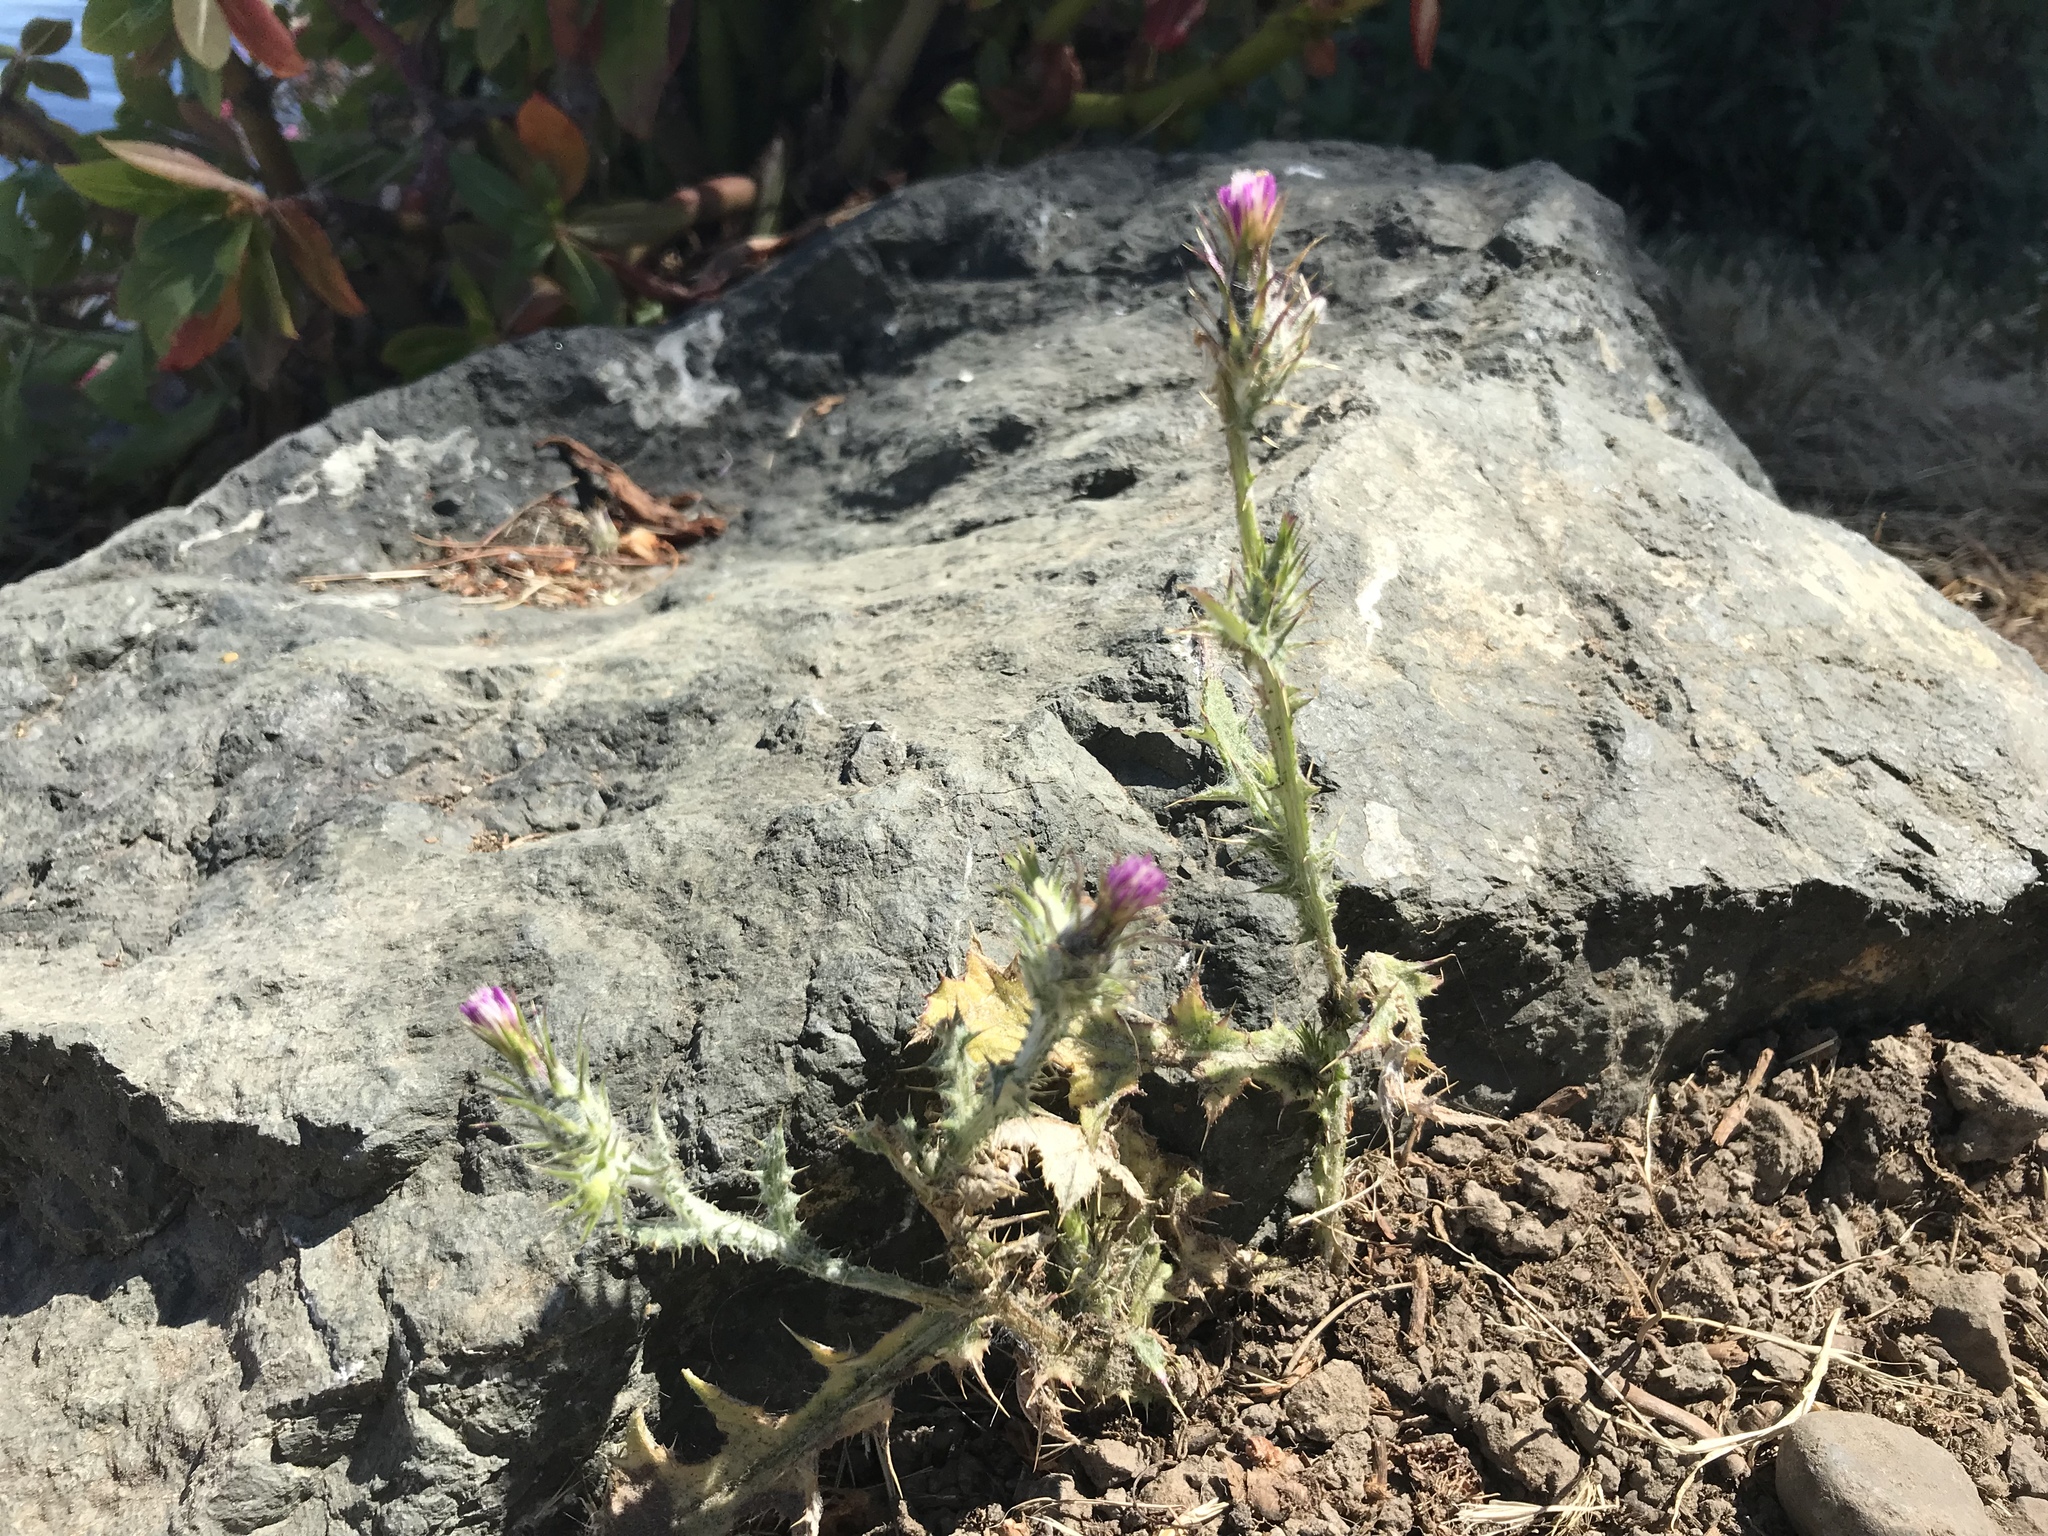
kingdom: Plantae
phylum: Tracheophyta
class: Magnoliopsida
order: Asterales
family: Asteraceae
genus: Carduus
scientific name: Carduus pycnocephalus
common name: Plymouth thistle
